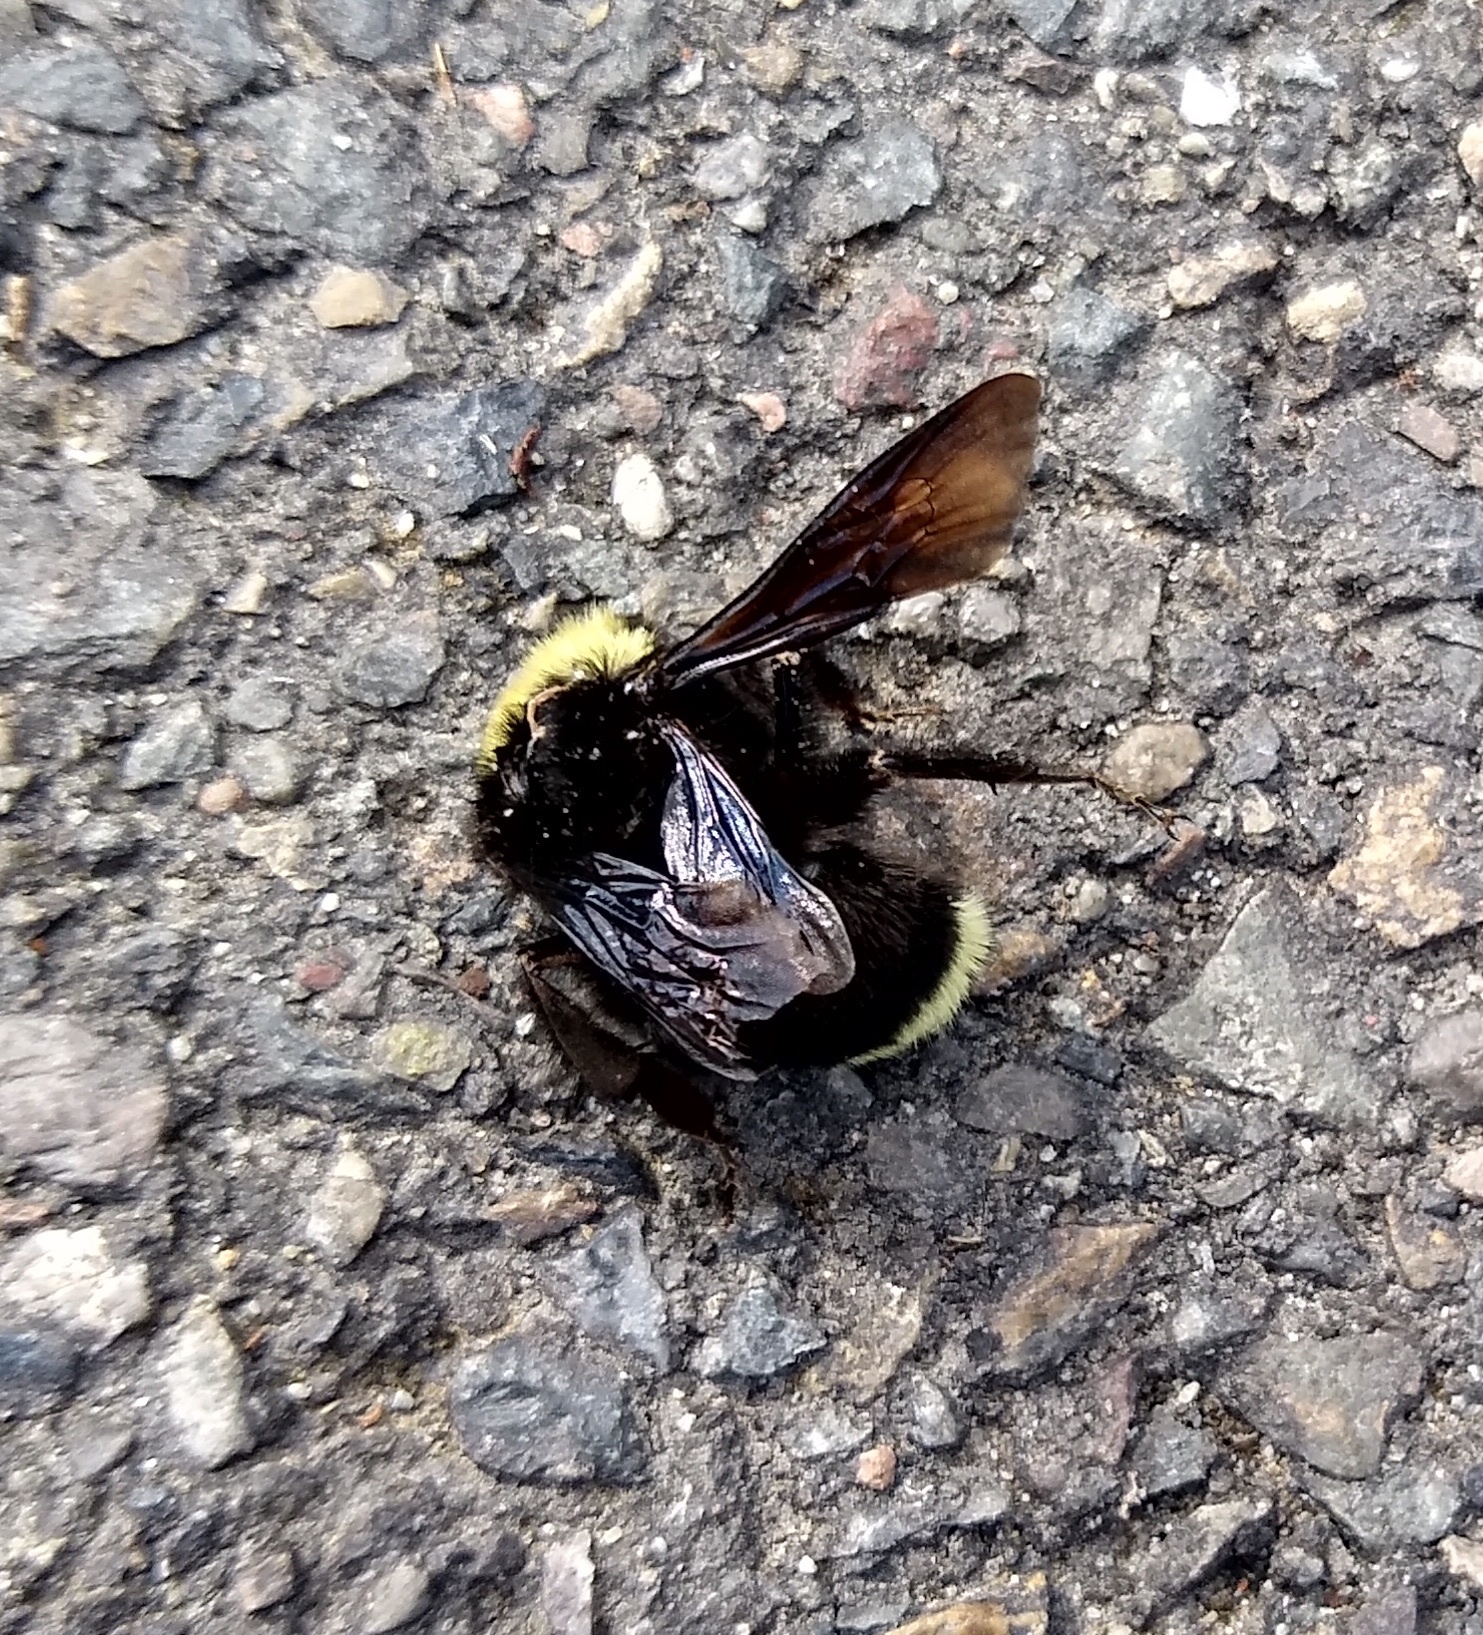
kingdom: Animalia
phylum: Arthropoda
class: Insecta
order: Hymenoptera
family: Apidae
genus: Bombus
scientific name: Bombus vosnesenskii
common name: Vosnesensky bumble bee
